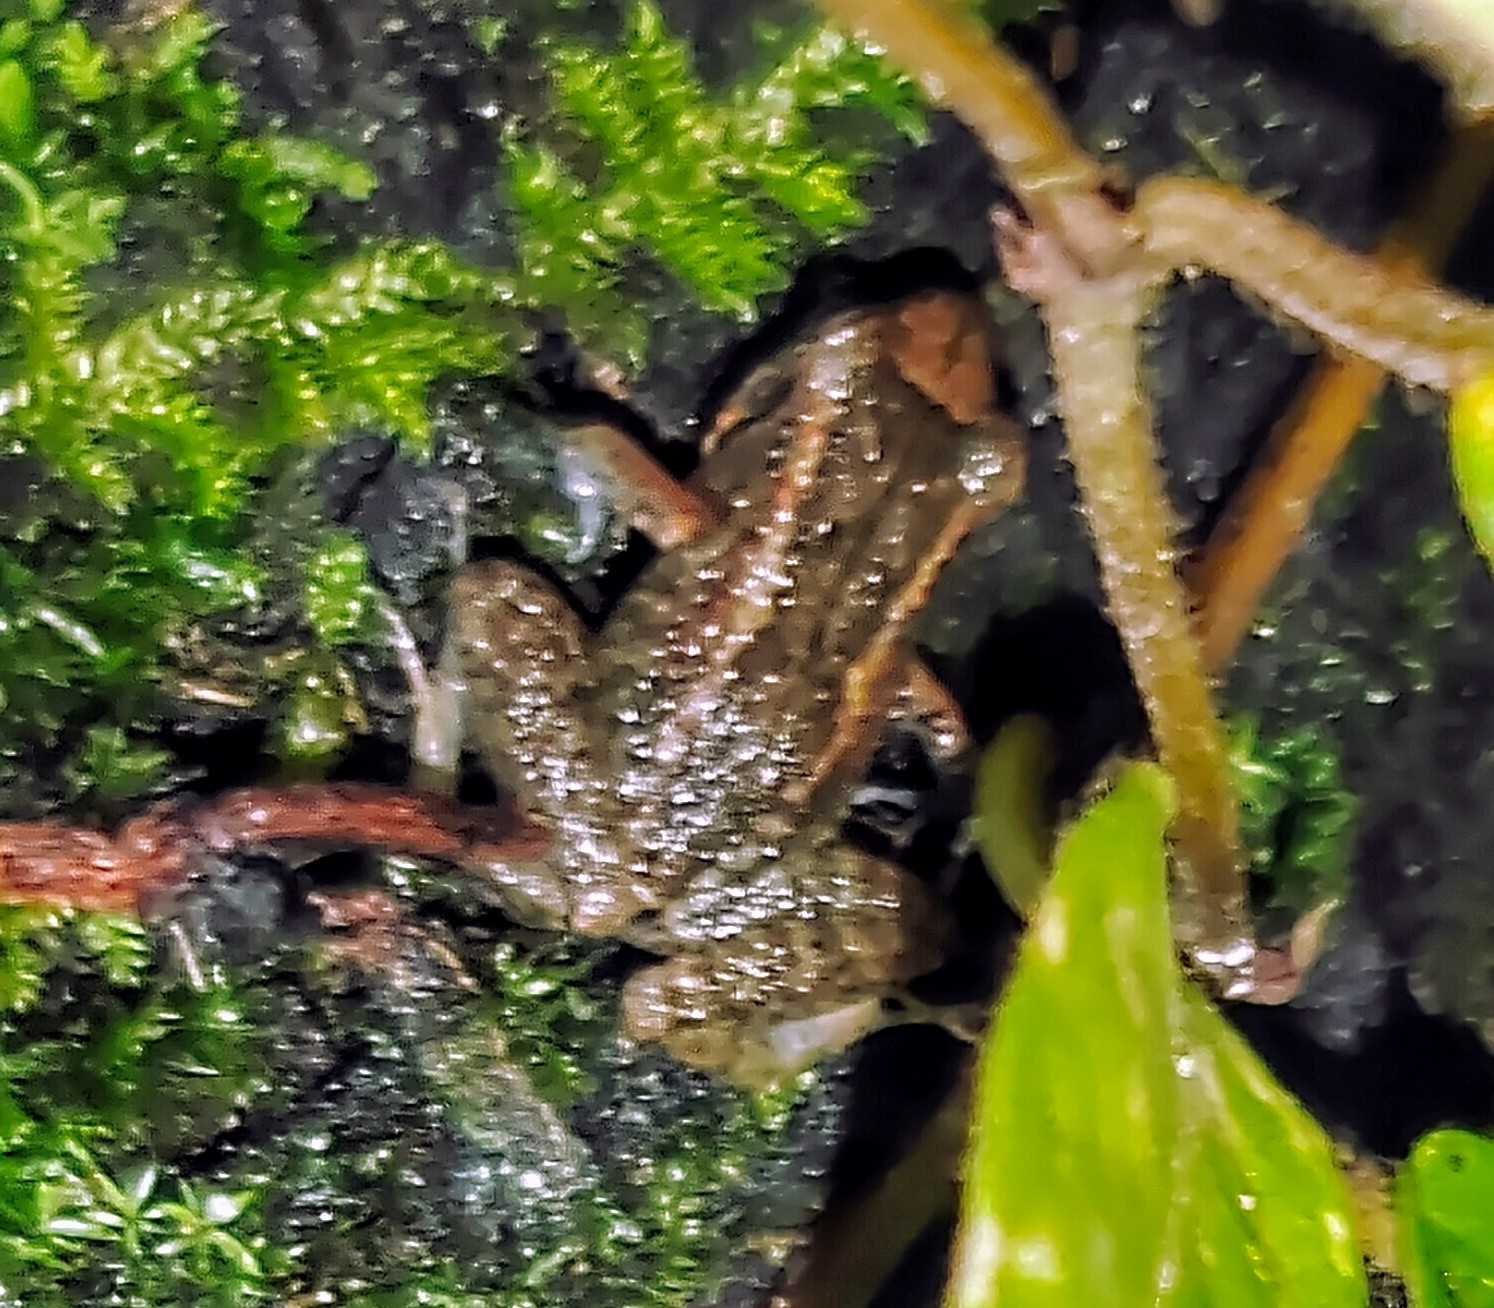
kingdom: Animalia
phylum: Chordata
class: Amphibia
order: Anura
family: Eleutherodactylidae
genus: Eleutherodactylus
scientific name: Eleutherodactylus planirostris
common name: Greenhouse frog
